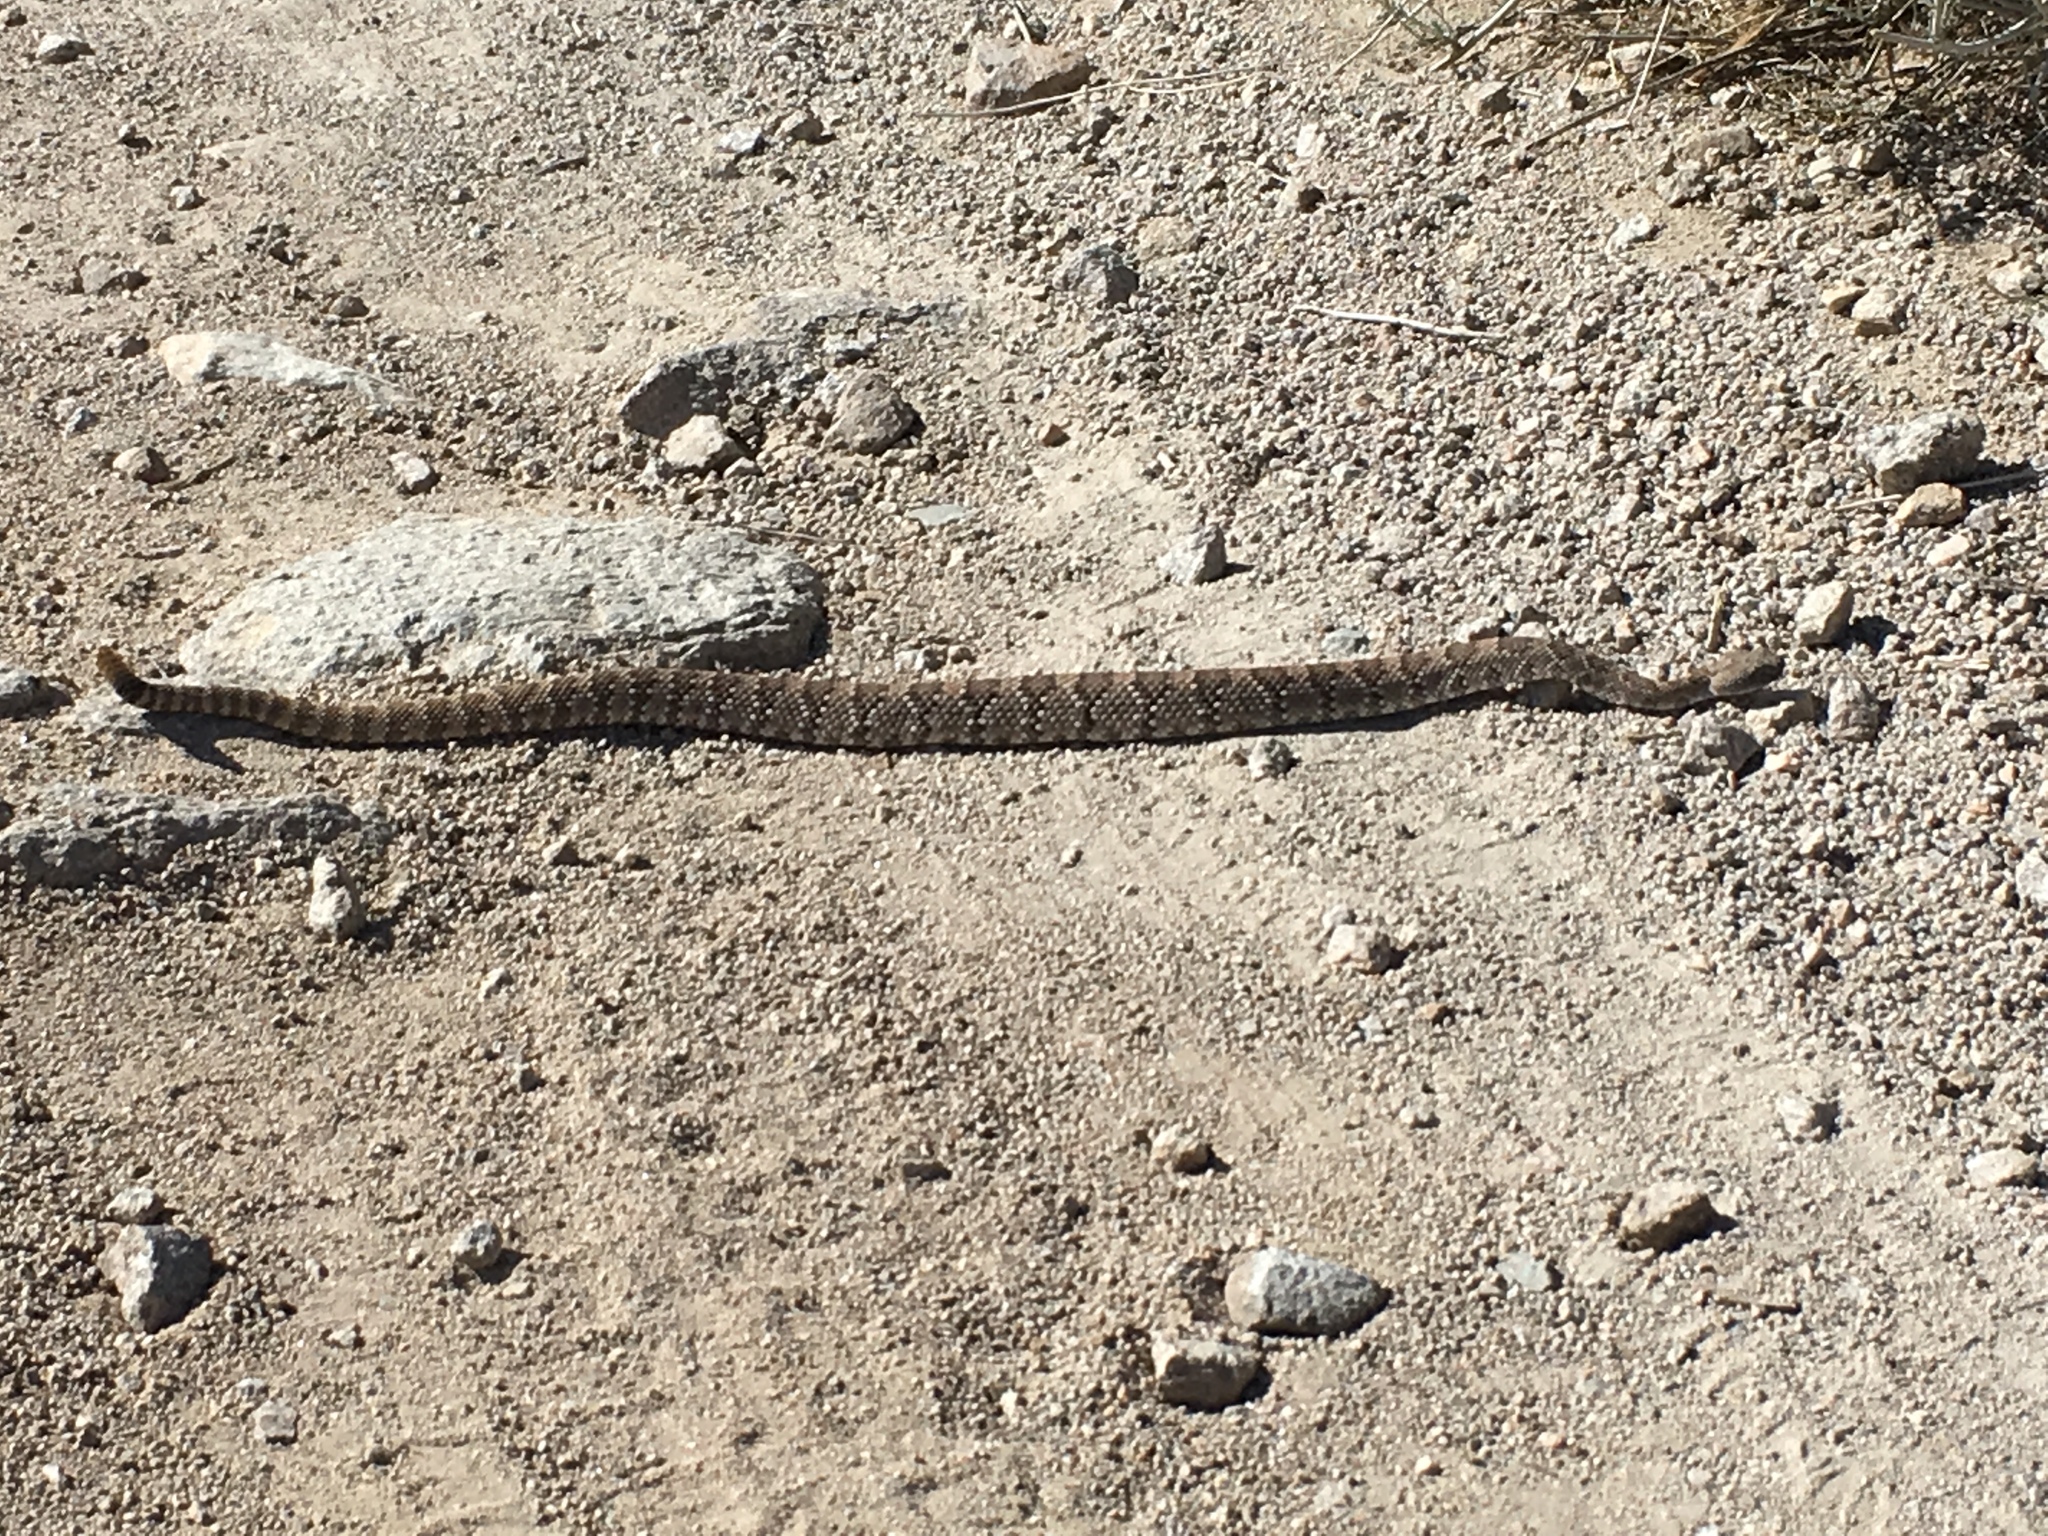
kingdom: Animalia
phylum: Chordata
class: Squamata
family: Viperidae
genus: Crotalus
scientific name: Crotalus stephensi
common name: Panamint rattlesnake
